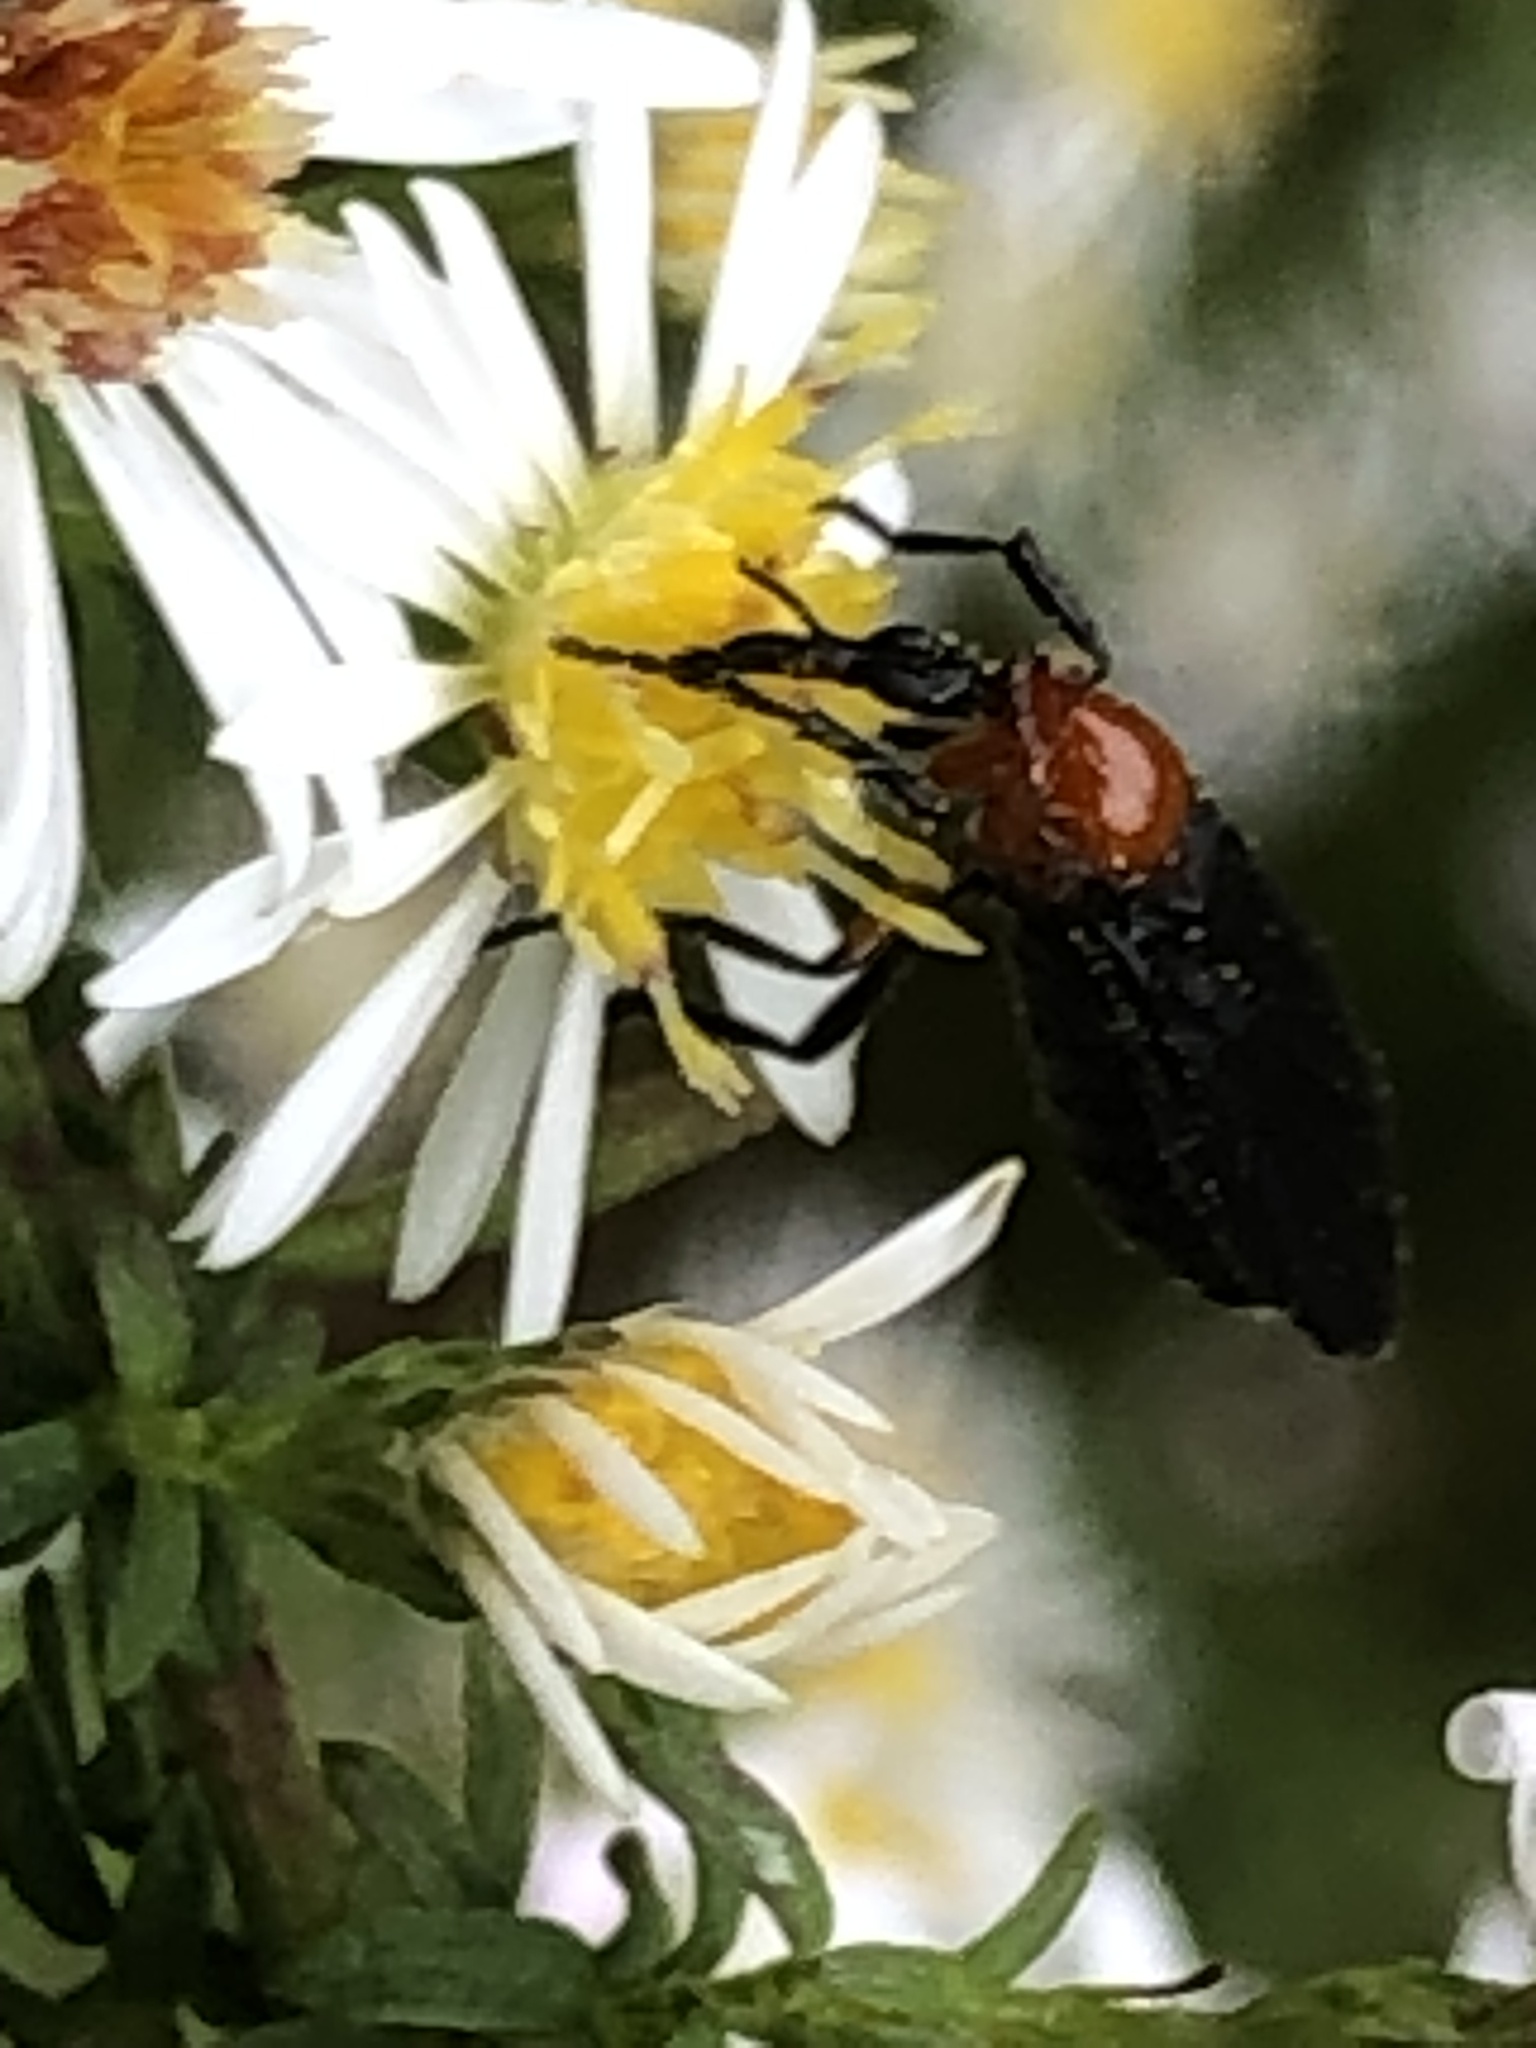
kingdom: Animalia
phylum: Arthropoda
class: Insecta
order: Diptera
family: Bibionidae
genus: Dilophus
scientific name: Dilophus spinipes
